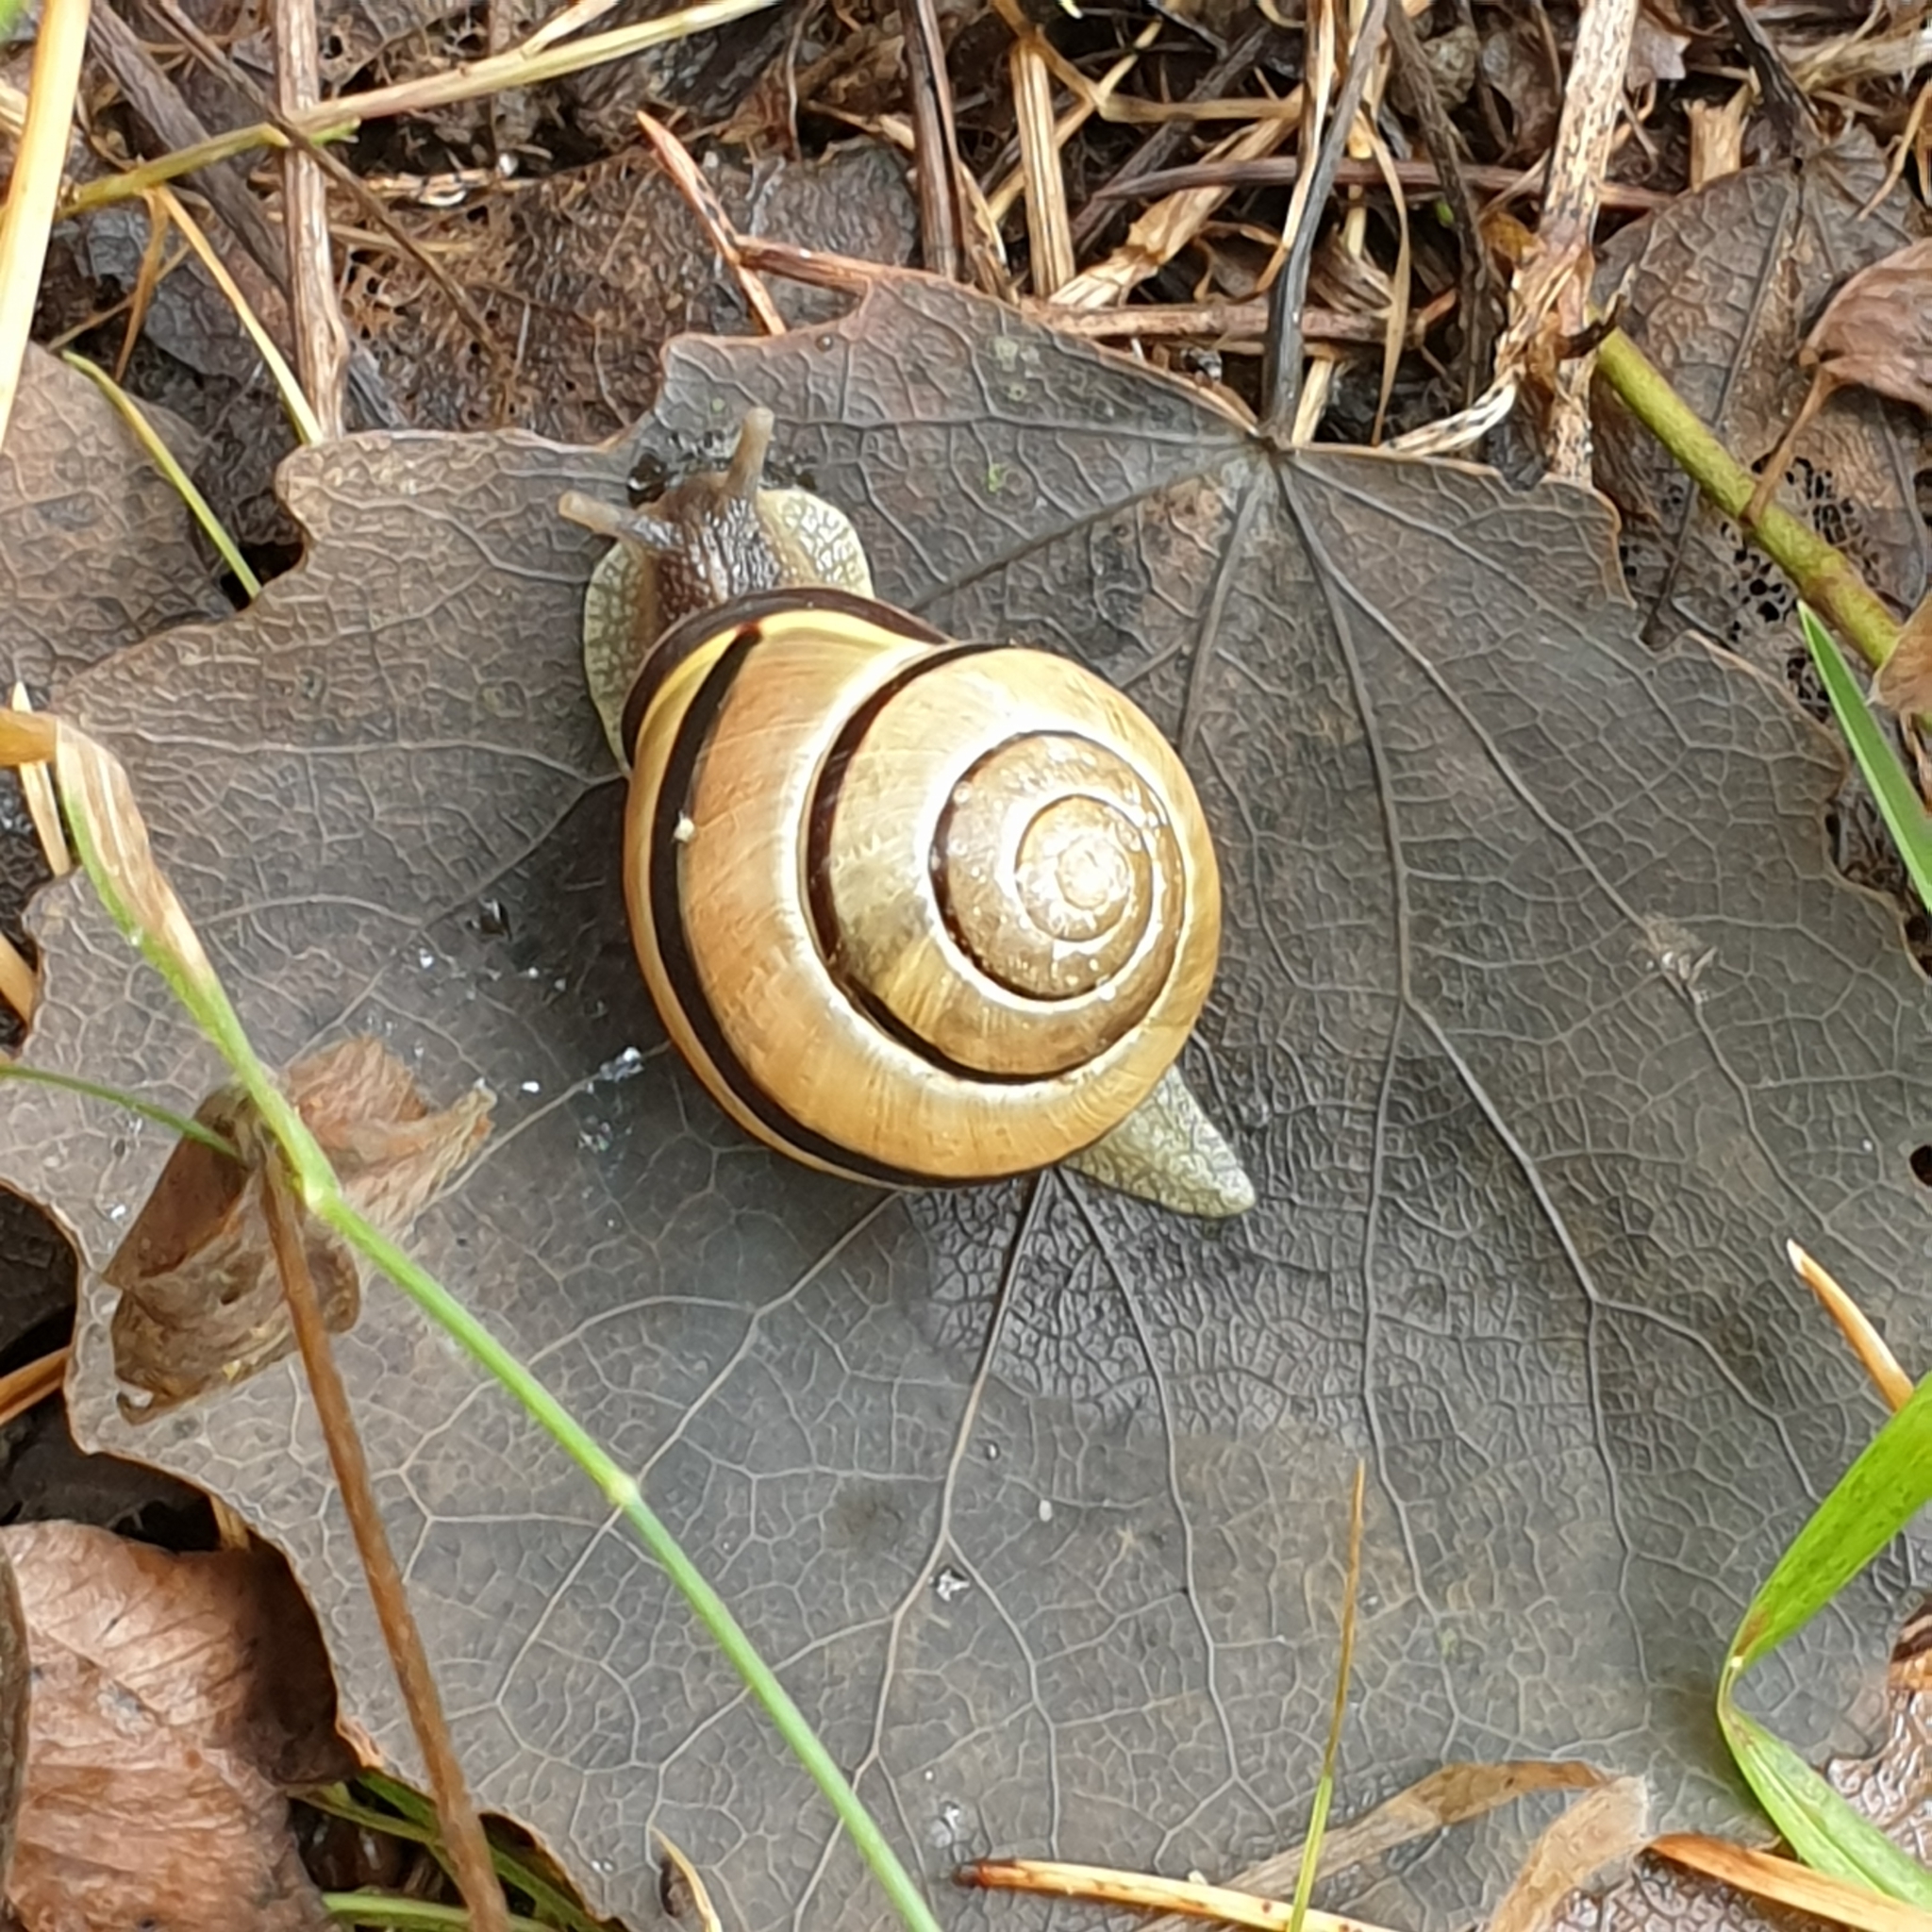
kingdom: Animalia
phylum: Mollusca
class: Gastropoda
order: Stylommatophora
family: Helicidae
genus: Cepaea
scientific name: Cepaea nemoralis
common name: Grovesnail
